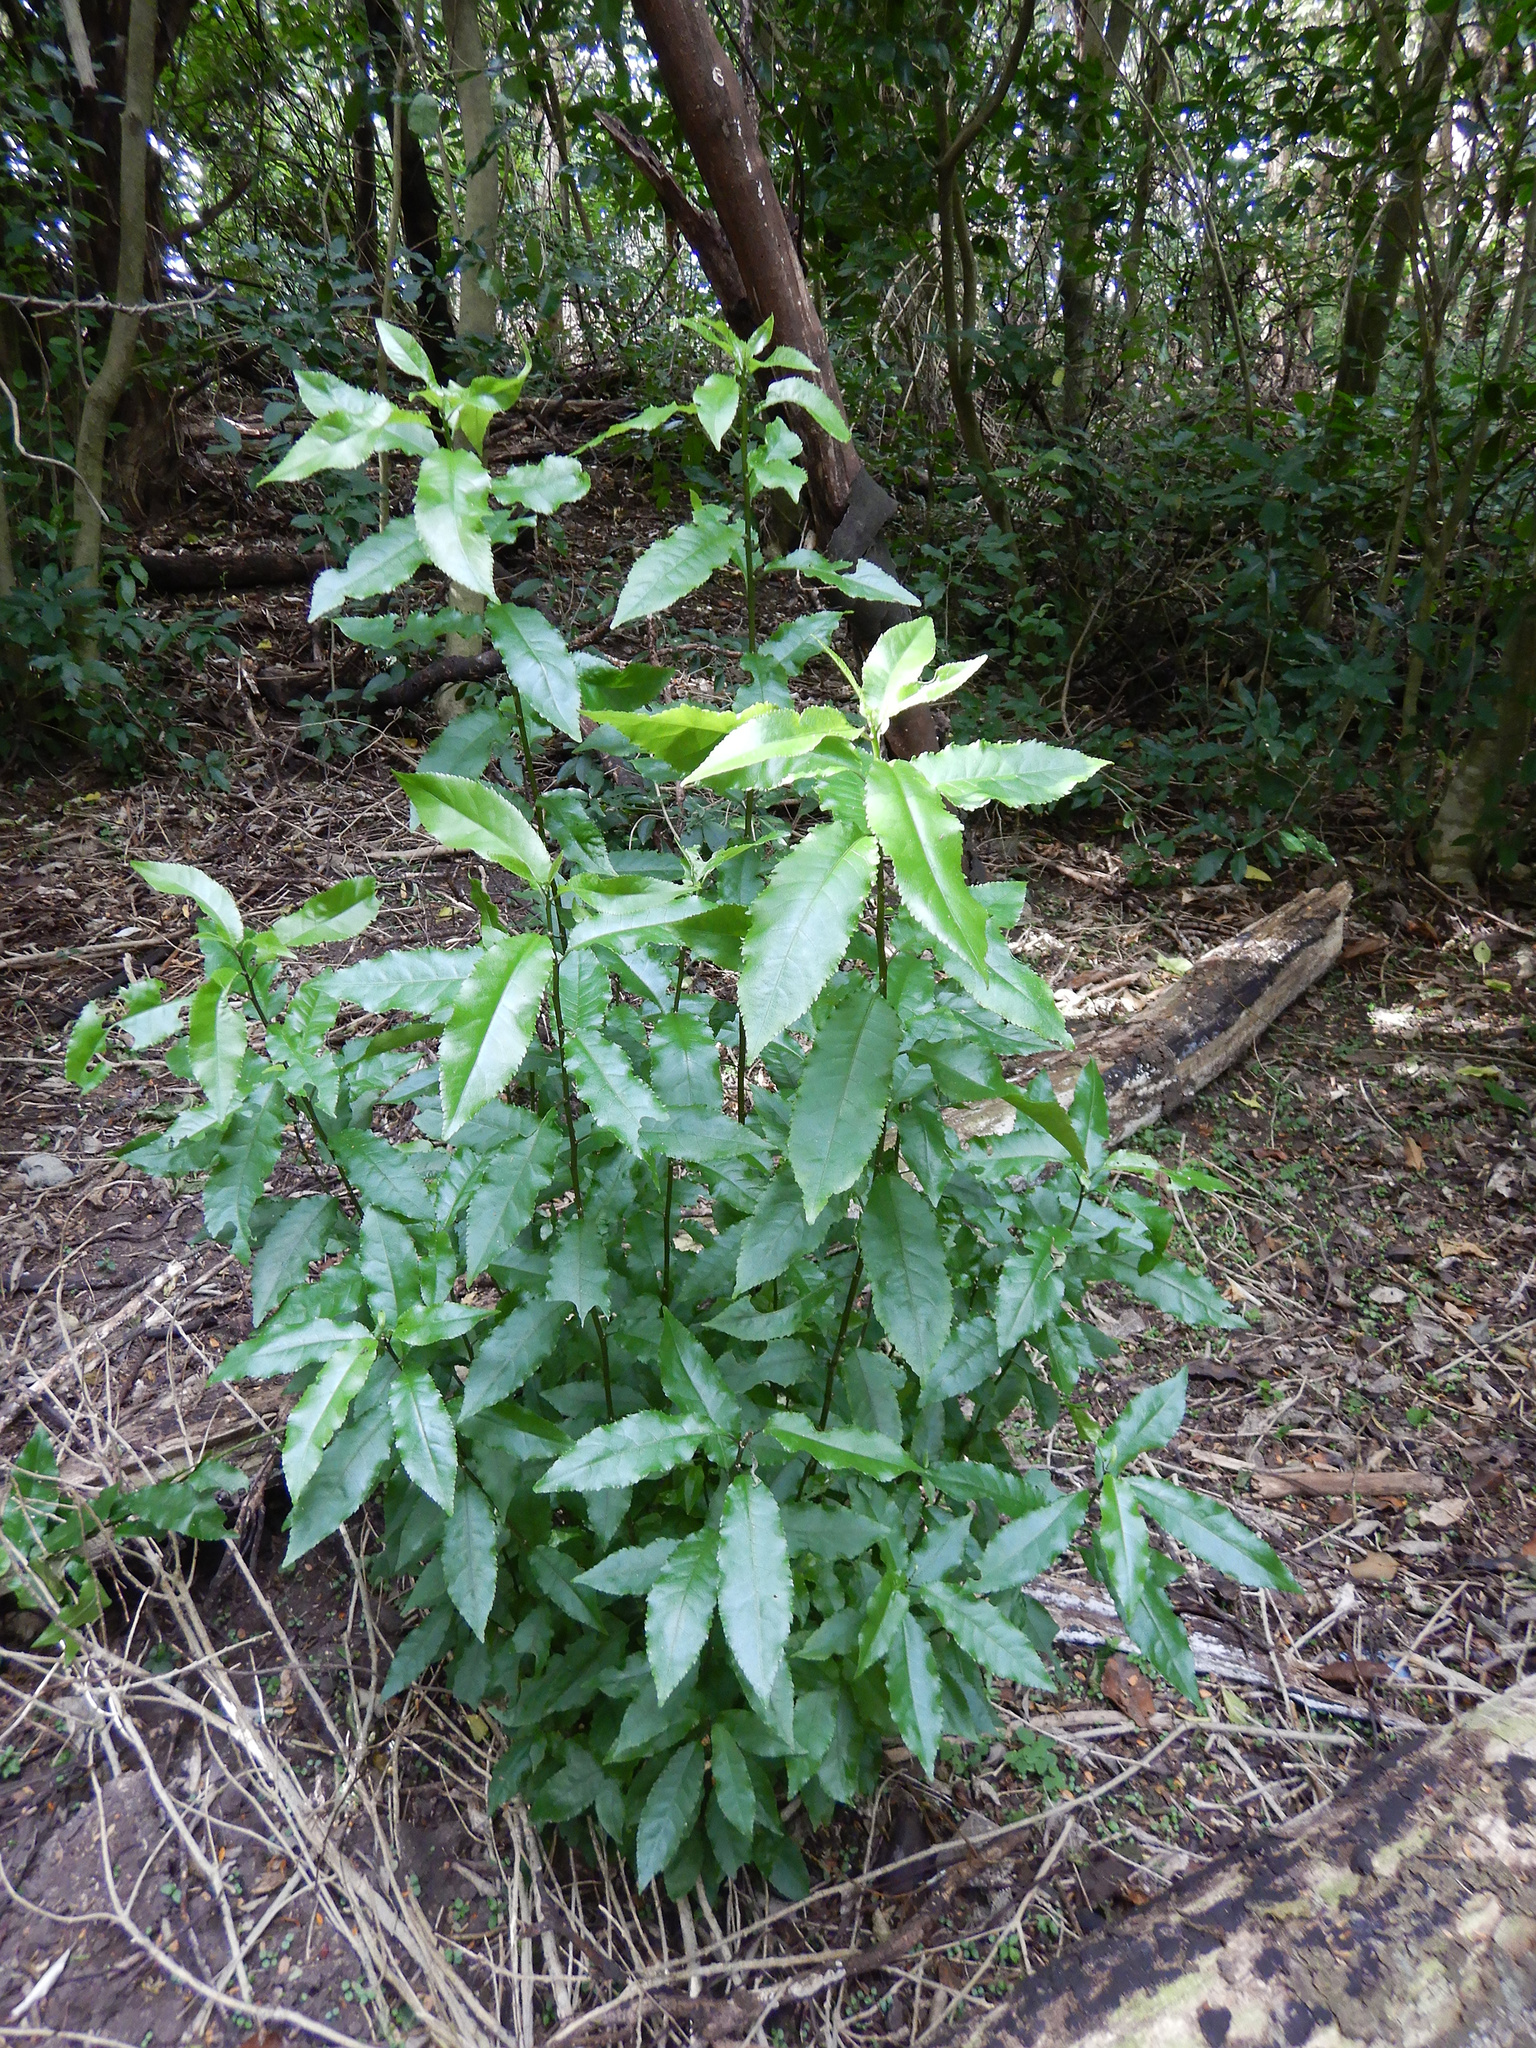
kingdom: Plantae
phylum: Tracheophyta
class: Magnoliopsida
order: Malpighiales
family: Violaceae
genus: Melicytus
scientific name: Melicytus ramiflorus
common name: Mahoe
